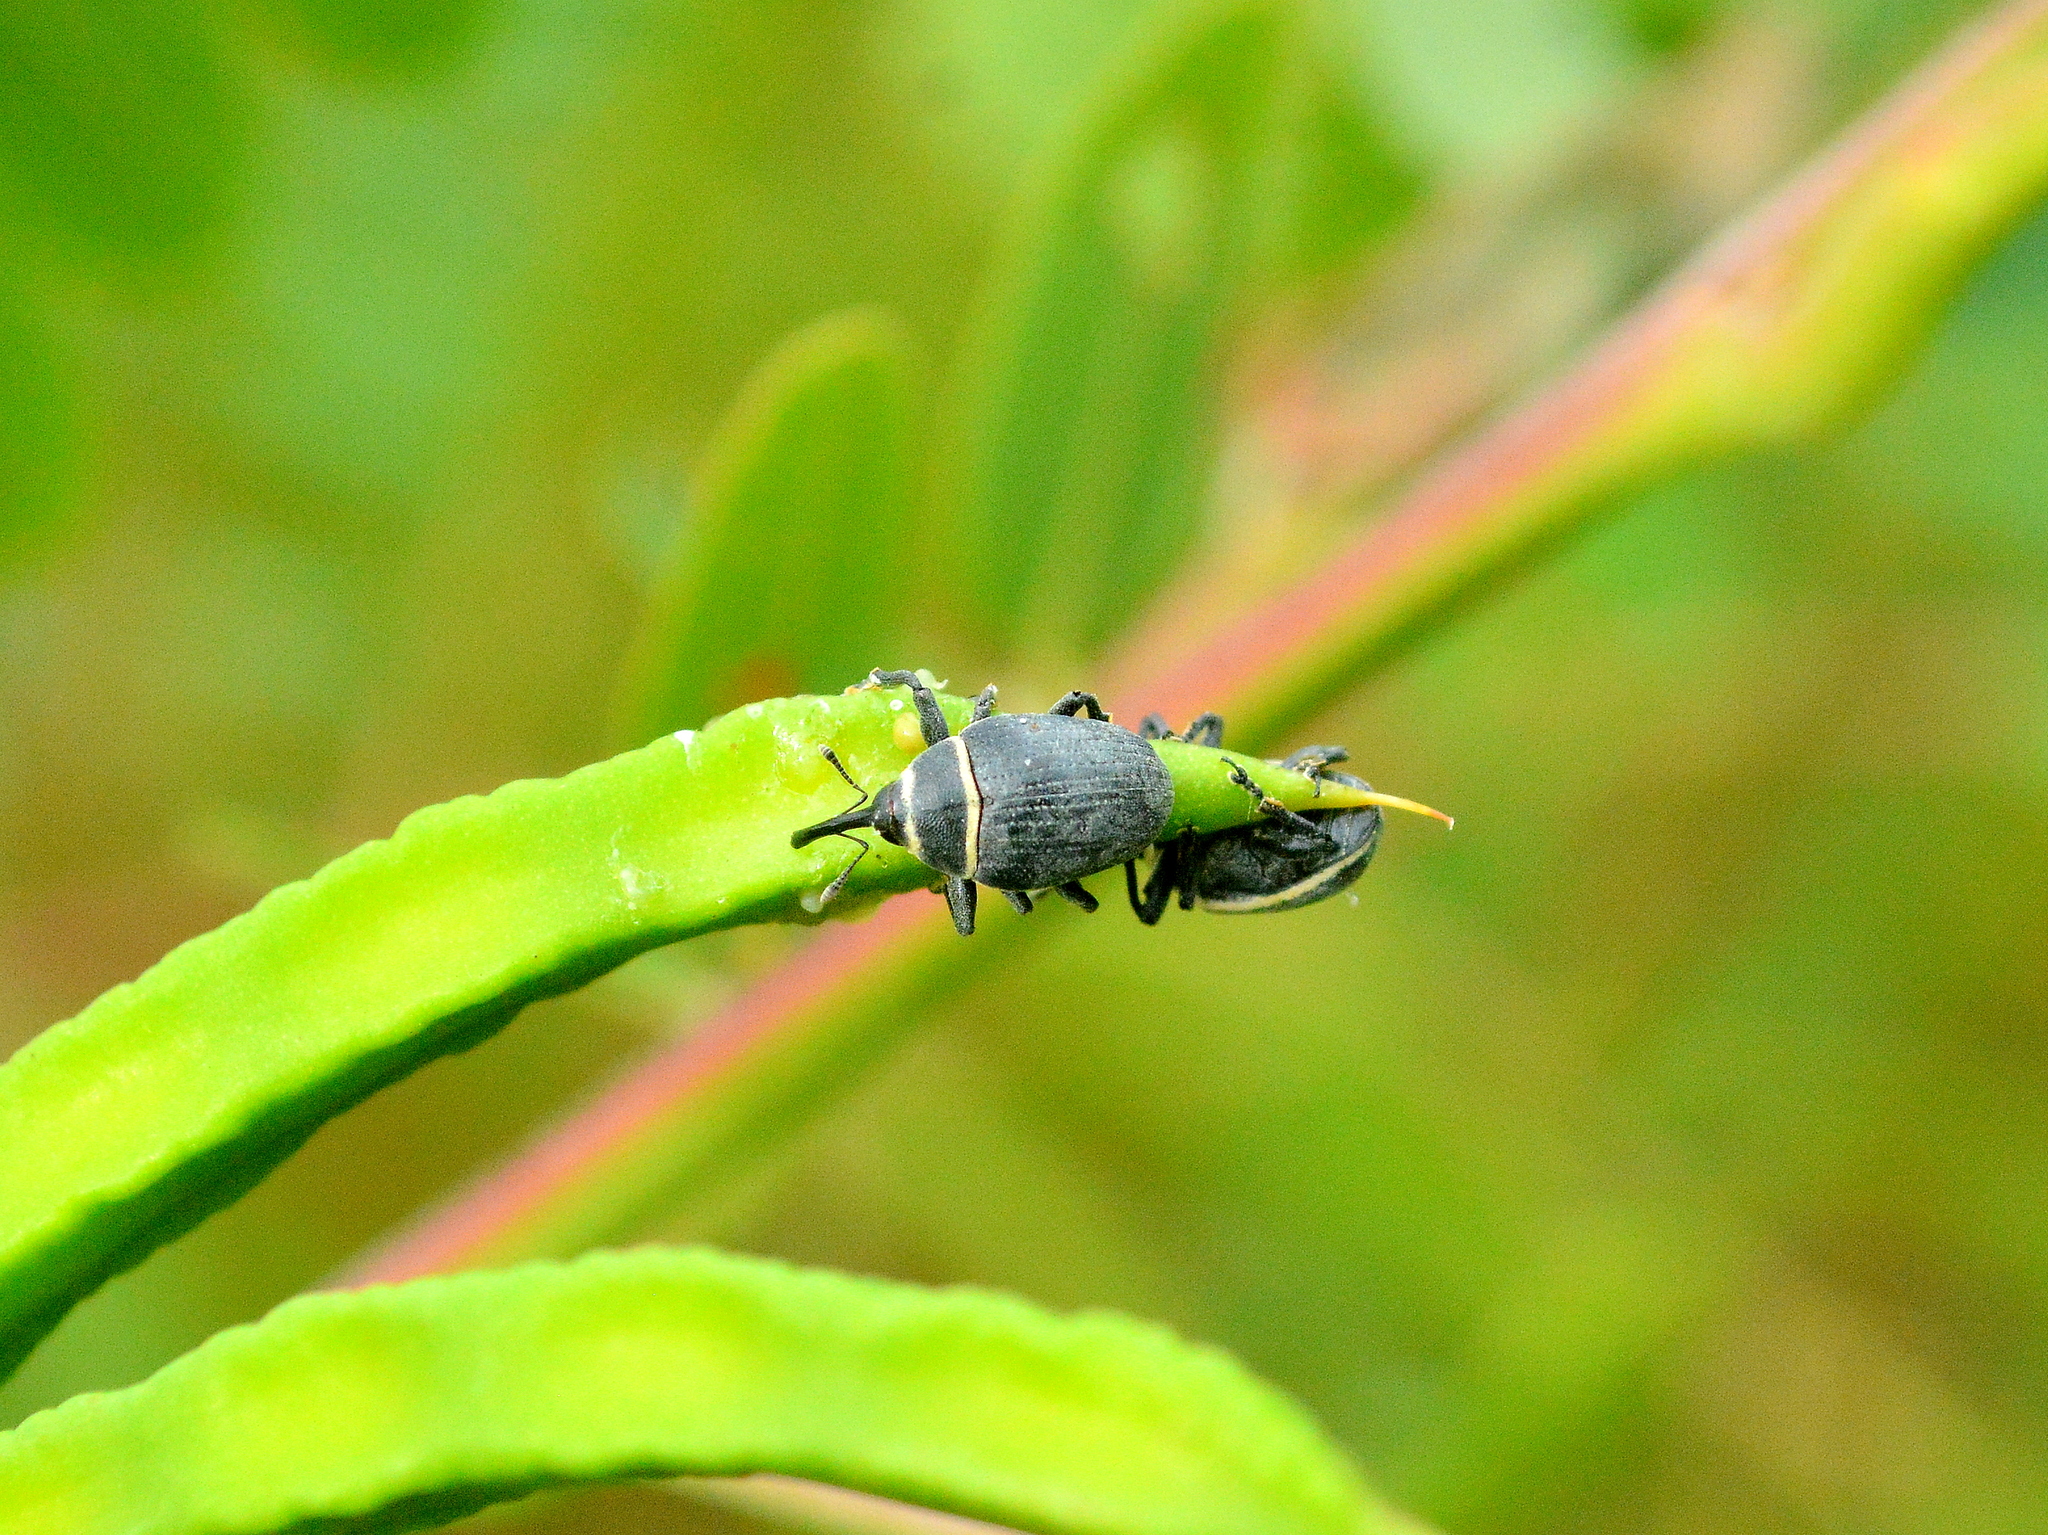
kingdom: Animalia
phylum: Arthropoda
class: Insecta
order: Coleoptera
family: Curculionidae
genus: Rhyssomatus
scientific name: Rhyssomatus marginatus
